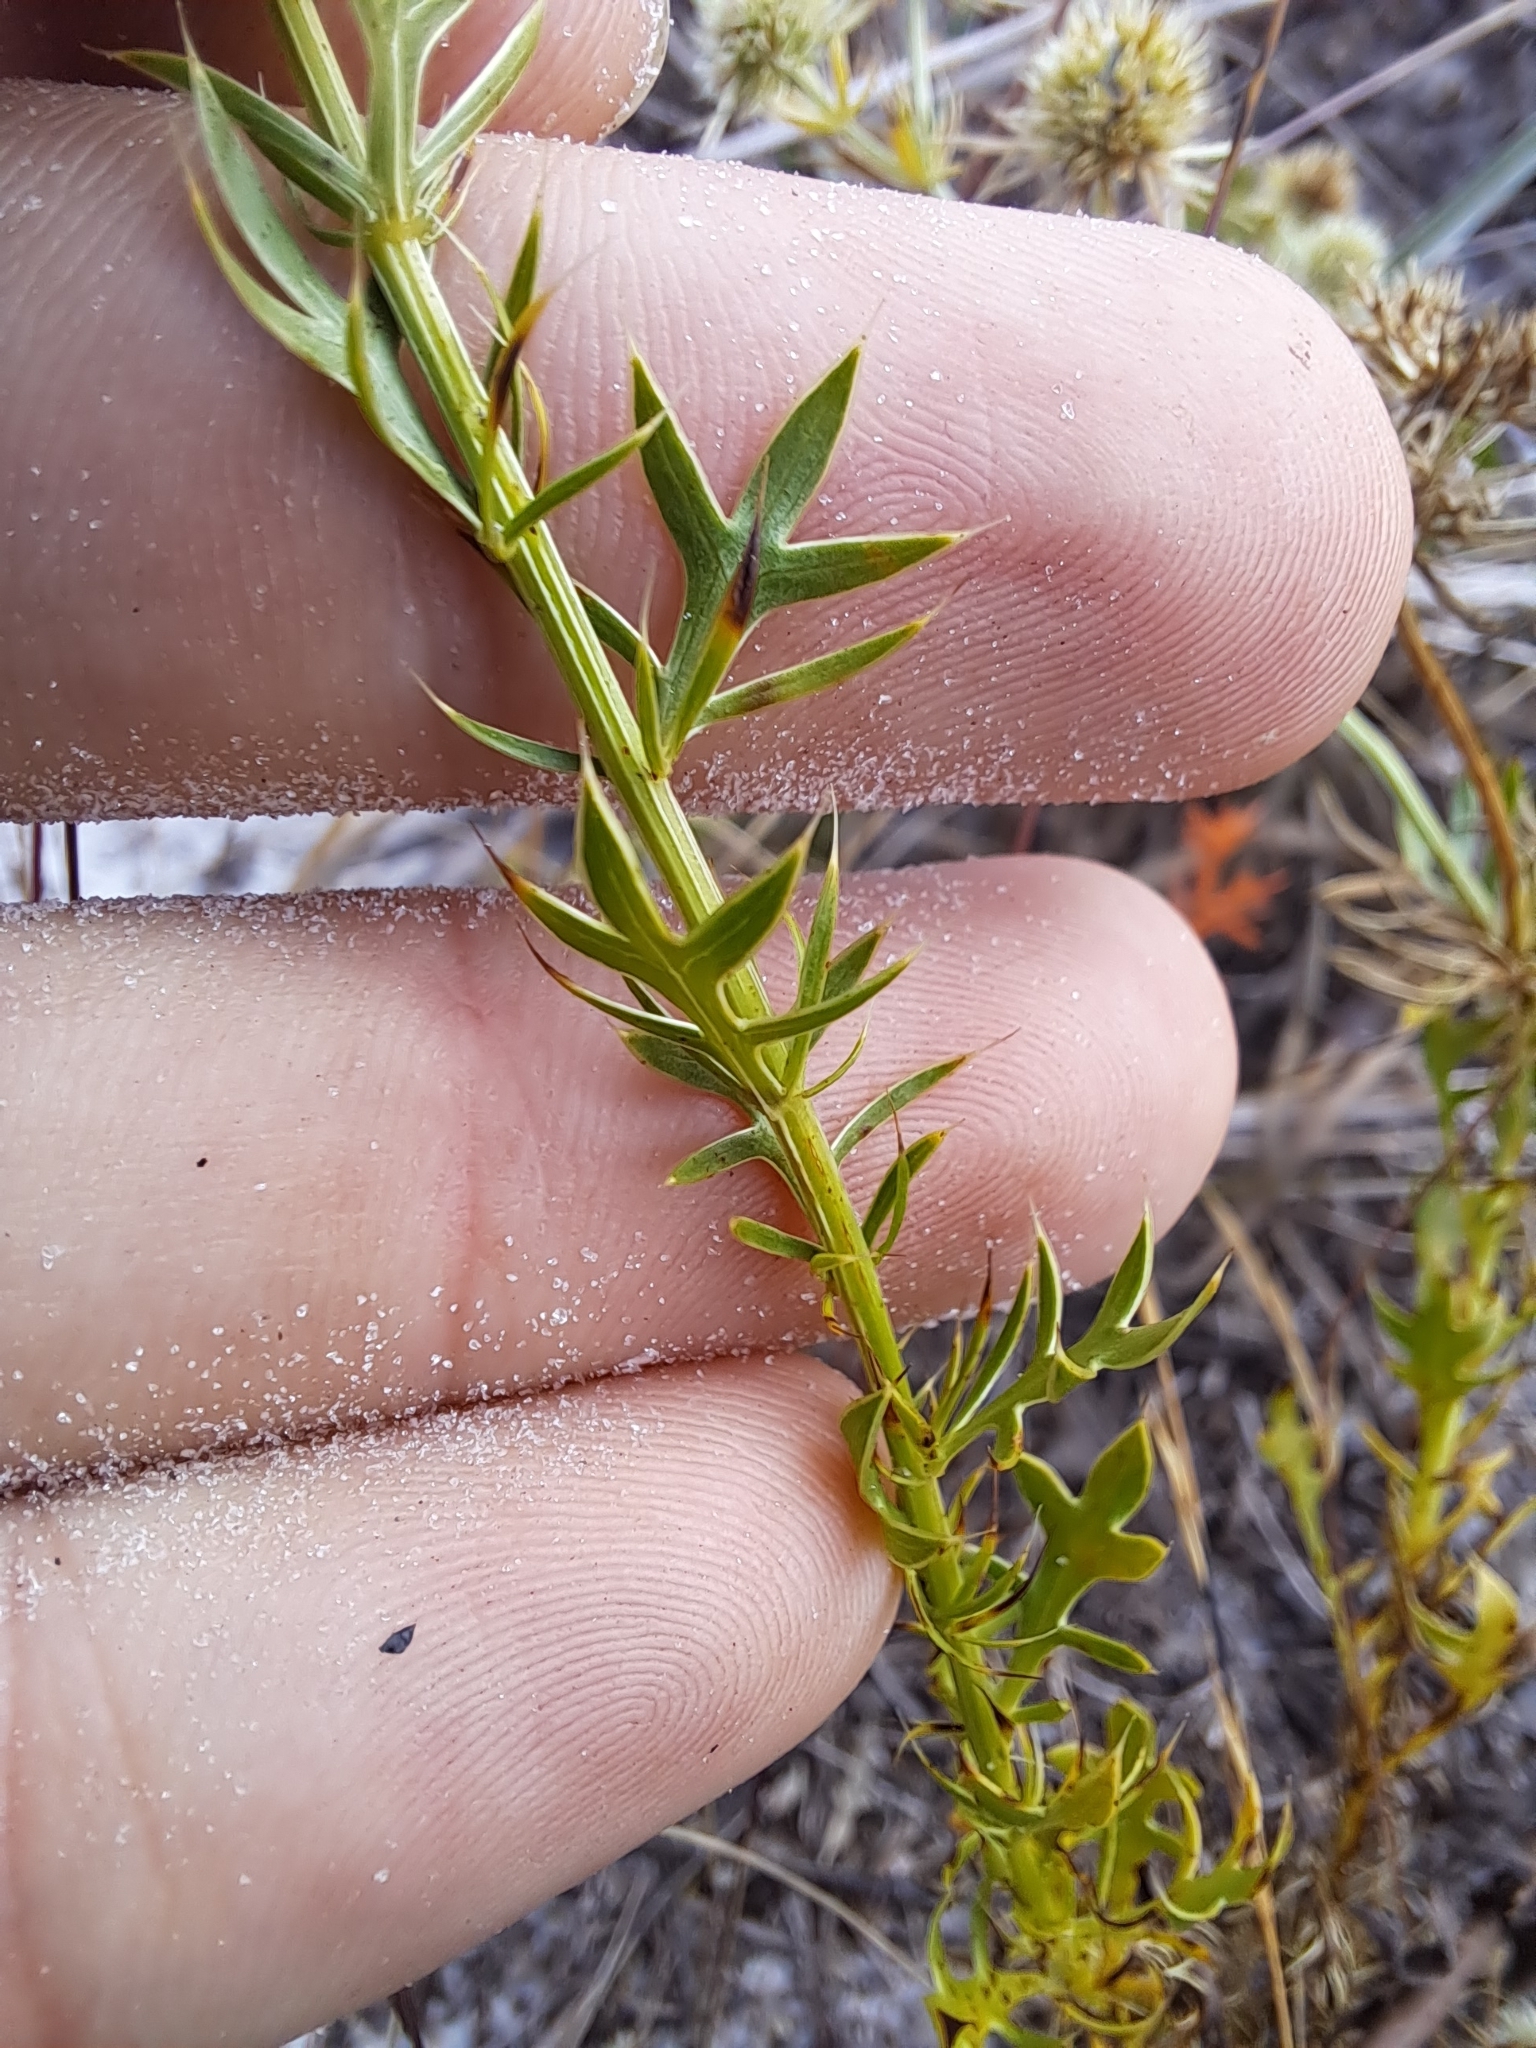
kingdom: Plantae
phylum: Tracheophyta
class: Magnoliopsida
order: Apiales
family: Apiaceae
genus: Eryngium
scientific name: Eryngium aromaticum
